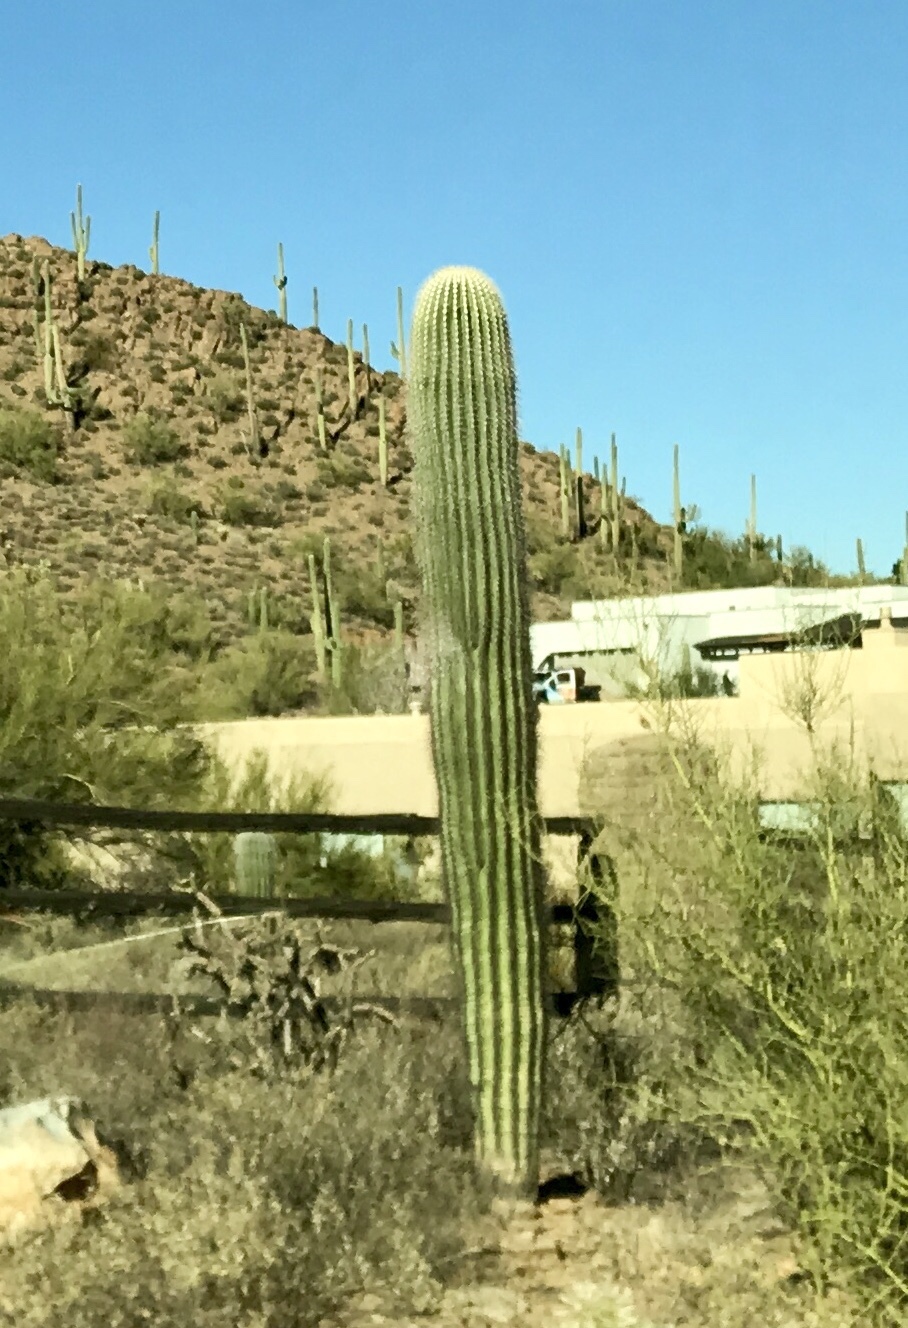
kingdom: Plantae
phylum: Tracheophyta
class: Magnoliopsida
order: Caryophyllales
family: Cactaceae
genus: Carnegiea
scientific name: Carnegiea gigantea
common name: Saguaro
